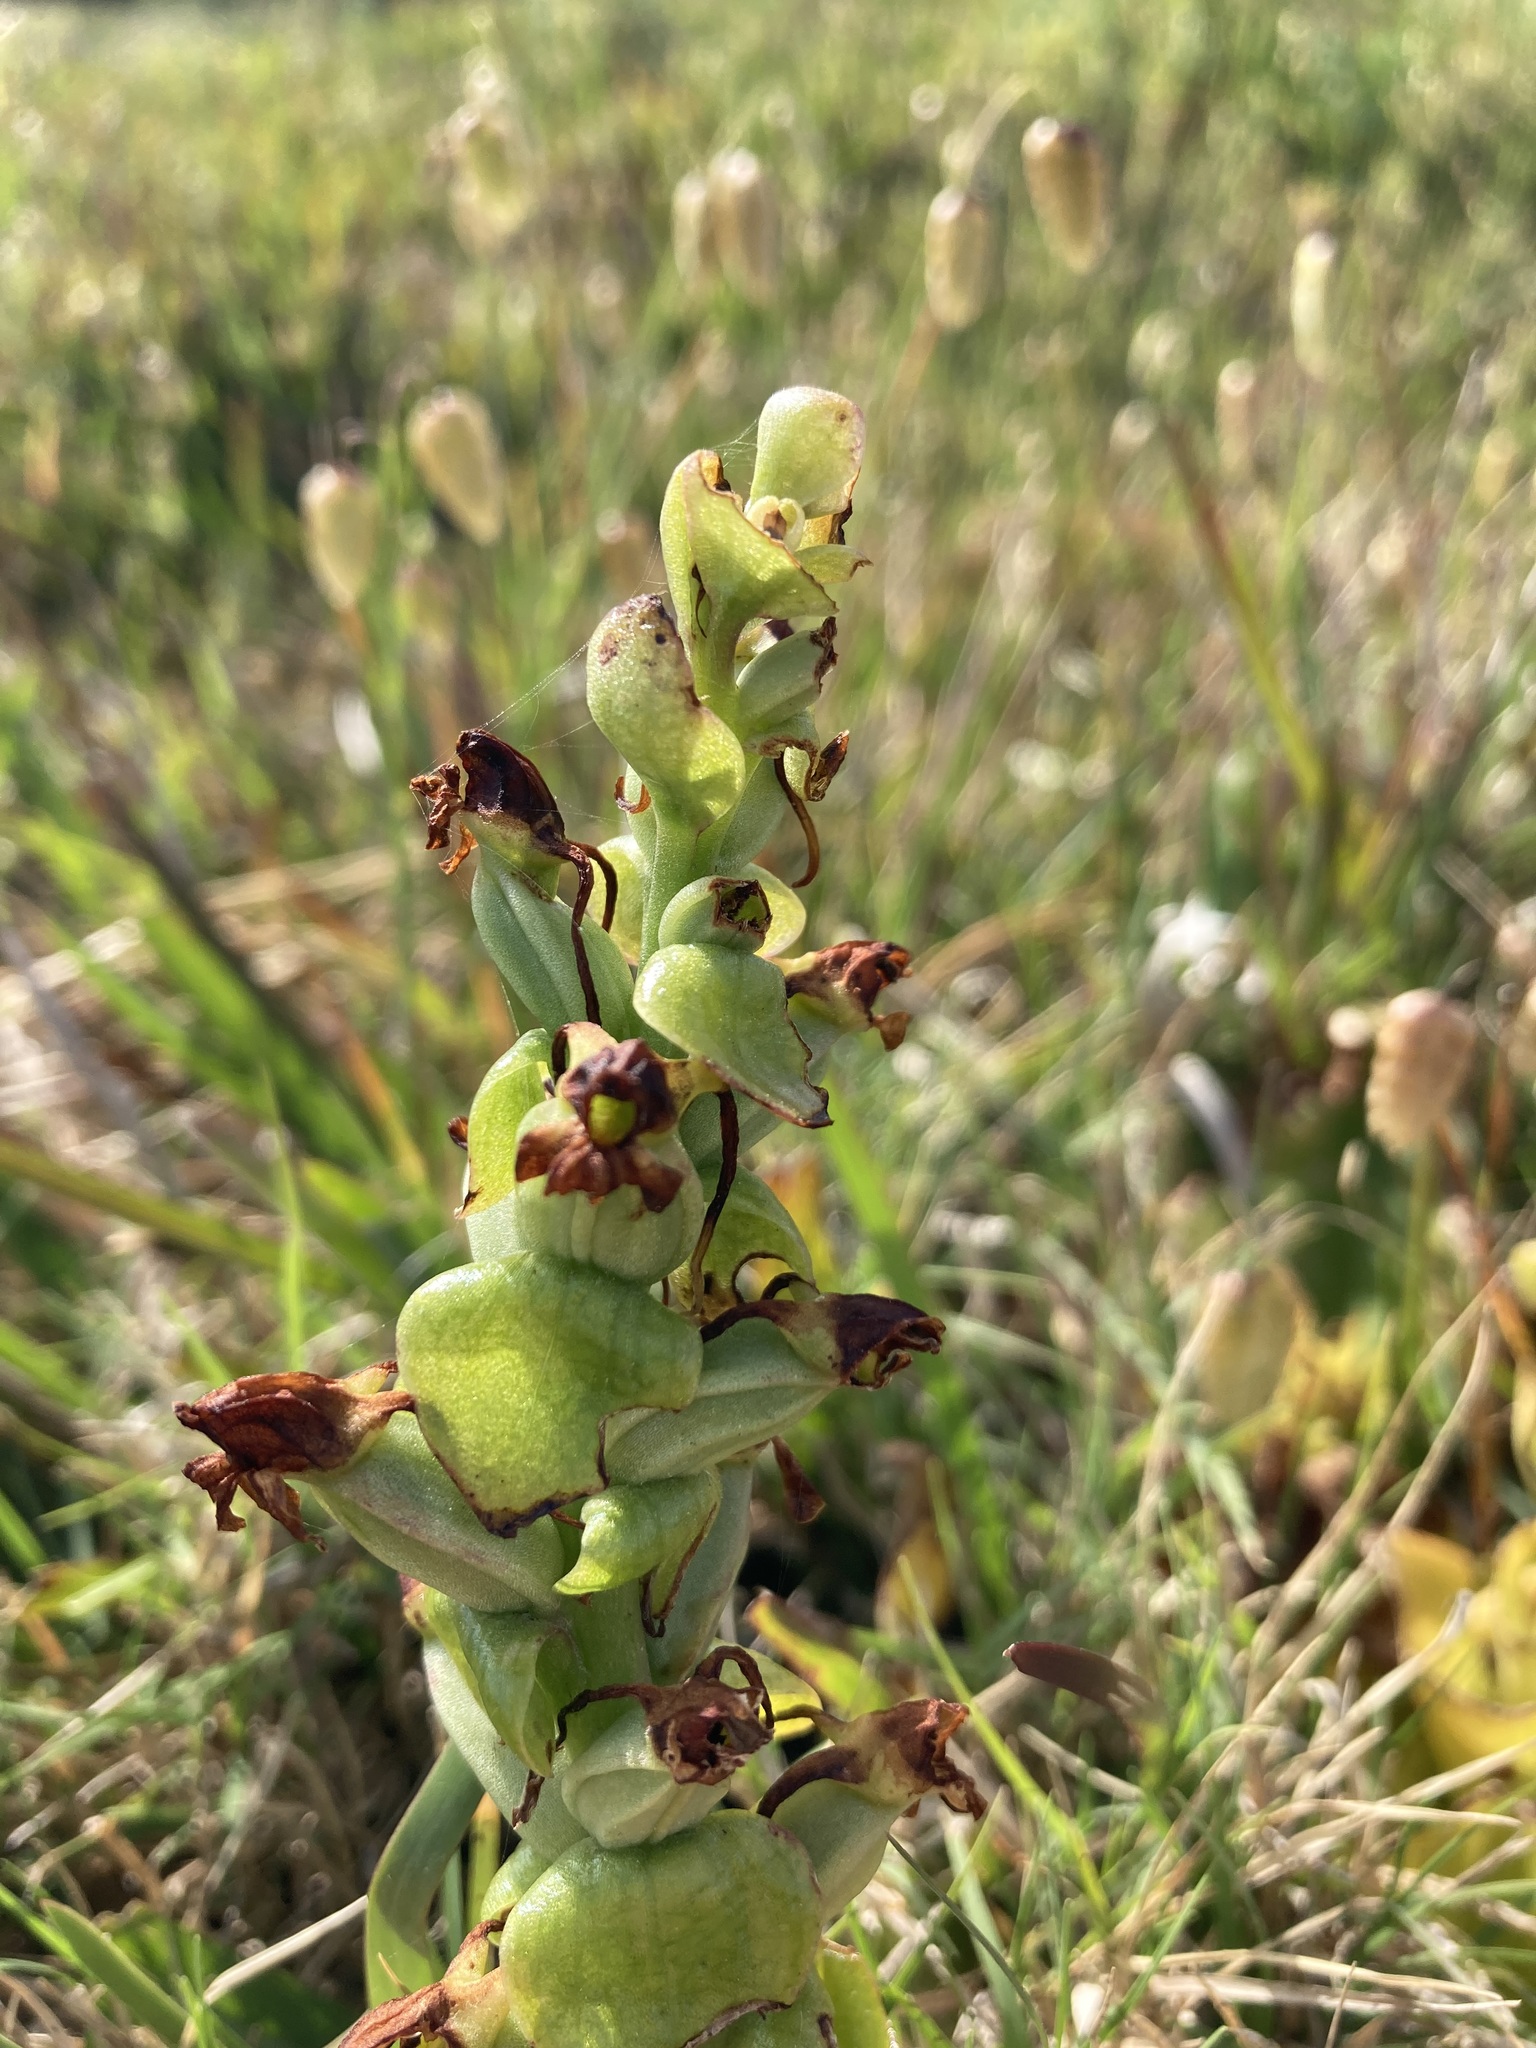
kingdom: Plantae
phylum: Tracheophyta
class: Liliopsida
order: Asparagales
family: Orchidaceae
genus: Satyrium
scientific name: Satyrium odorum
